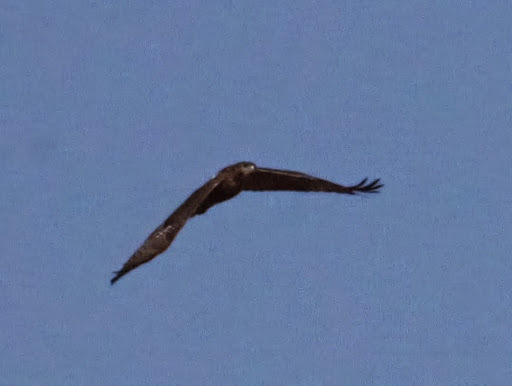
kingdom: Animalia
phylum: Chordata
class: Aves
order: Accipitriformes
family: Accipitridae
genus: Buteo
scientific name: Buteo jamaicensis
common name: Red-tailed hawk
